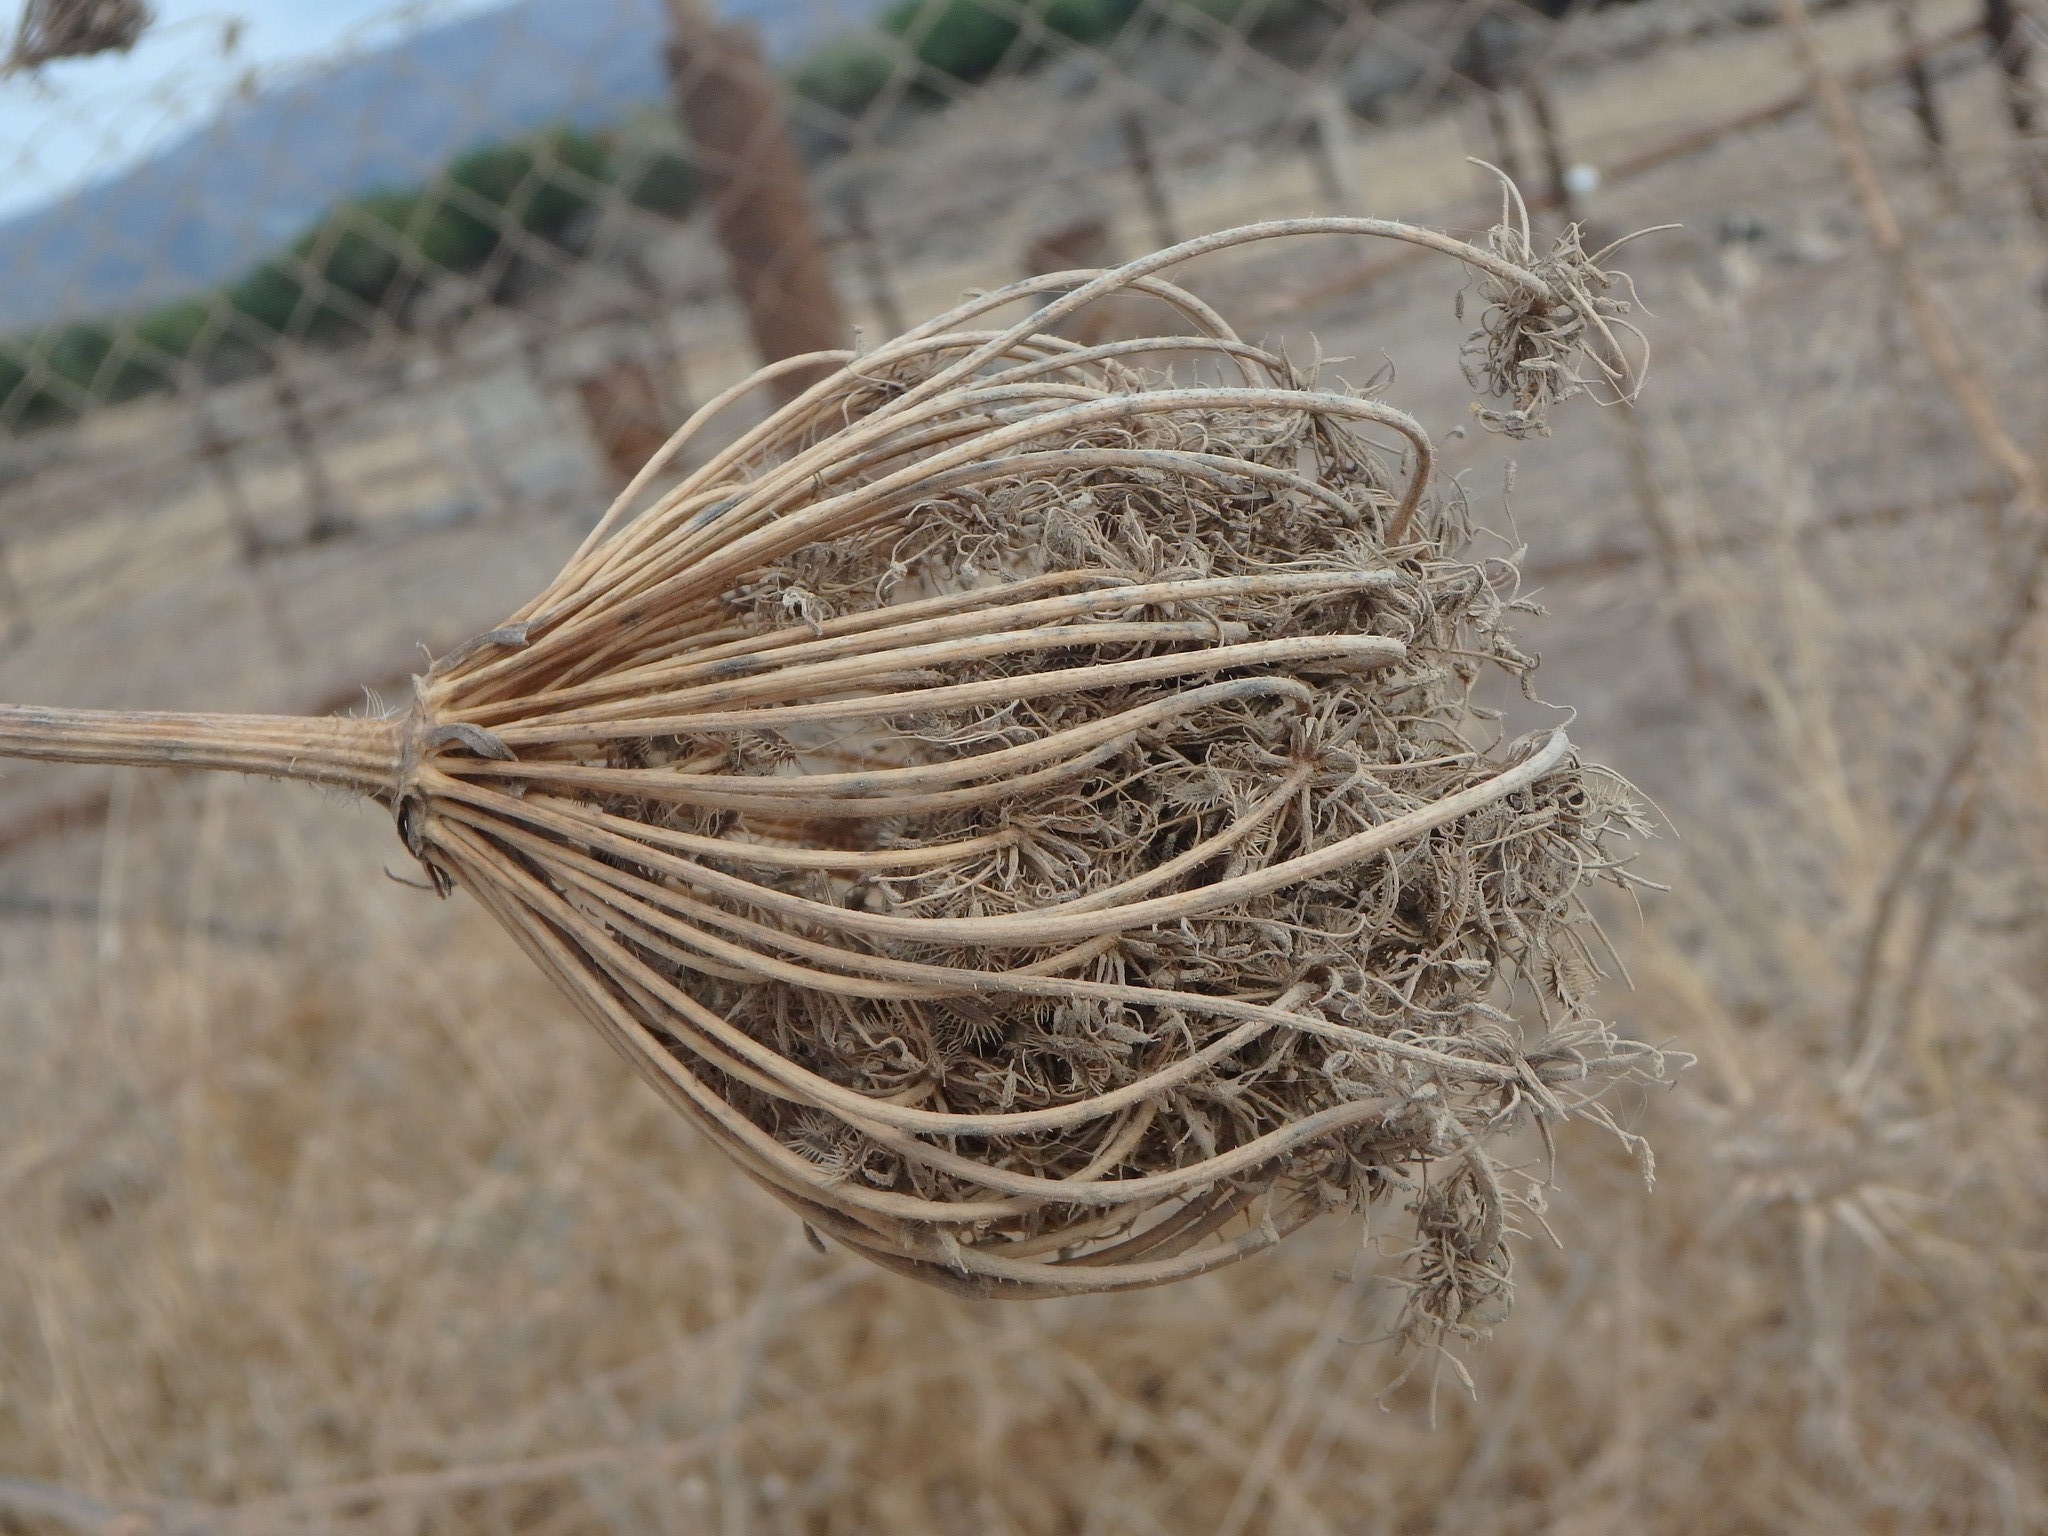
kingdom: Plantae
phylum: Tracheophyta
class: Magnoliopsida
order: Apiales
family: Apiaceae
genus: Daucus
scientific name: Daucus carota
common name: Wild carrot
